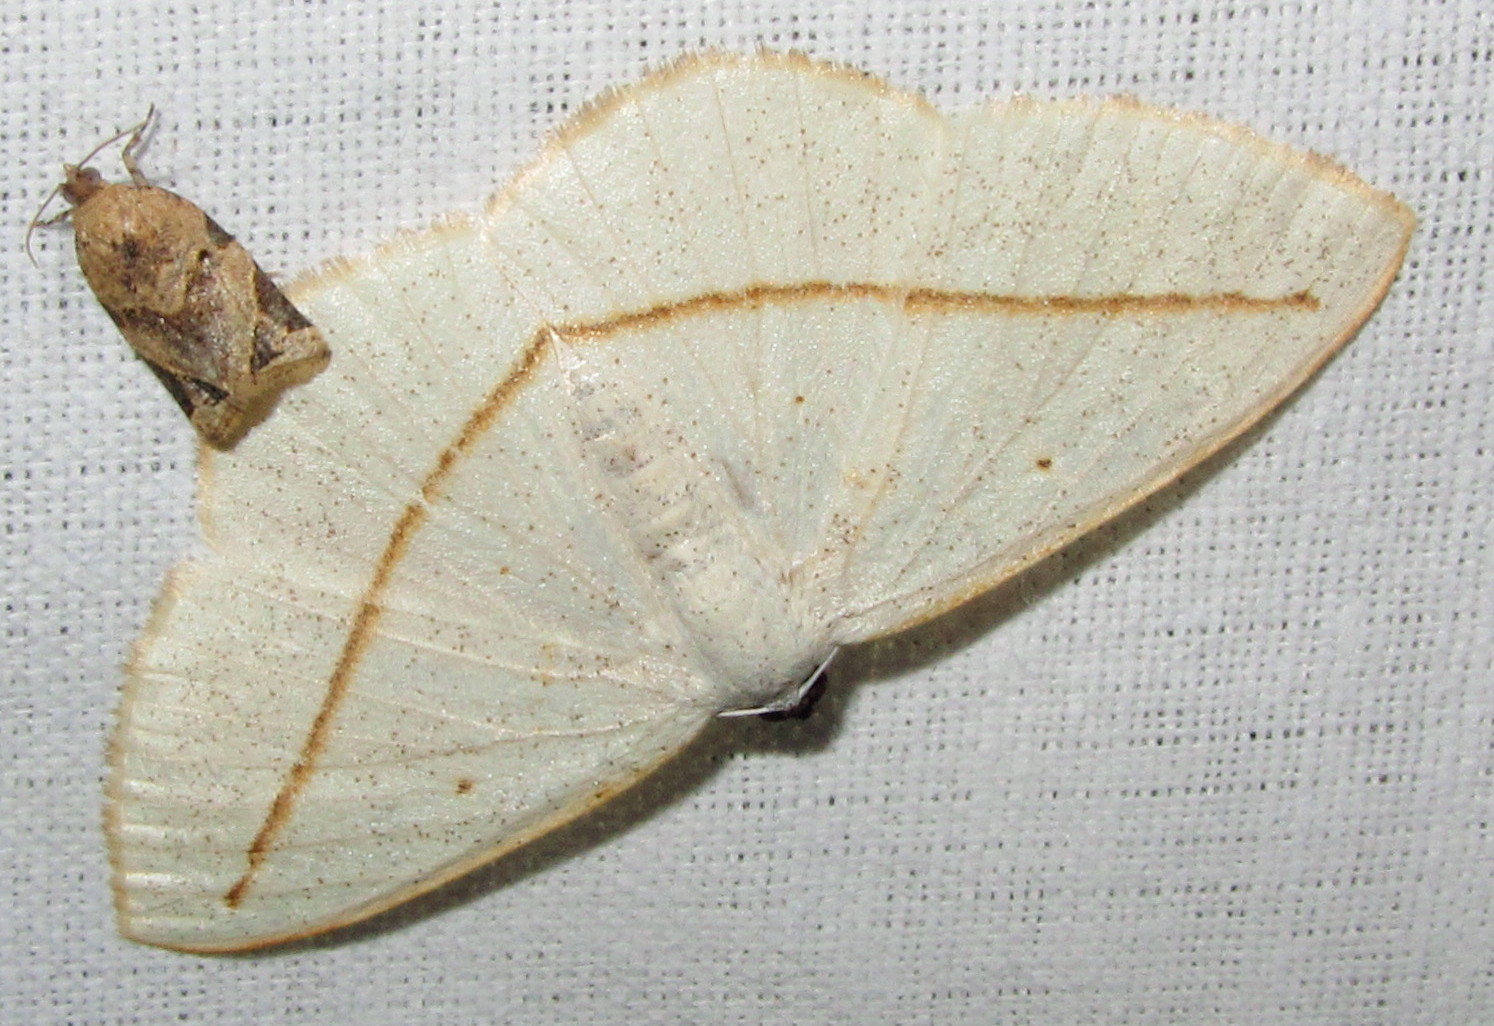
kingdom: Animalia
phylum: Arthropoda
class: Insecta
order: Lepidoptera
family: Geometridae
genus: Lomographa
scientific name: Lomographa inamata
